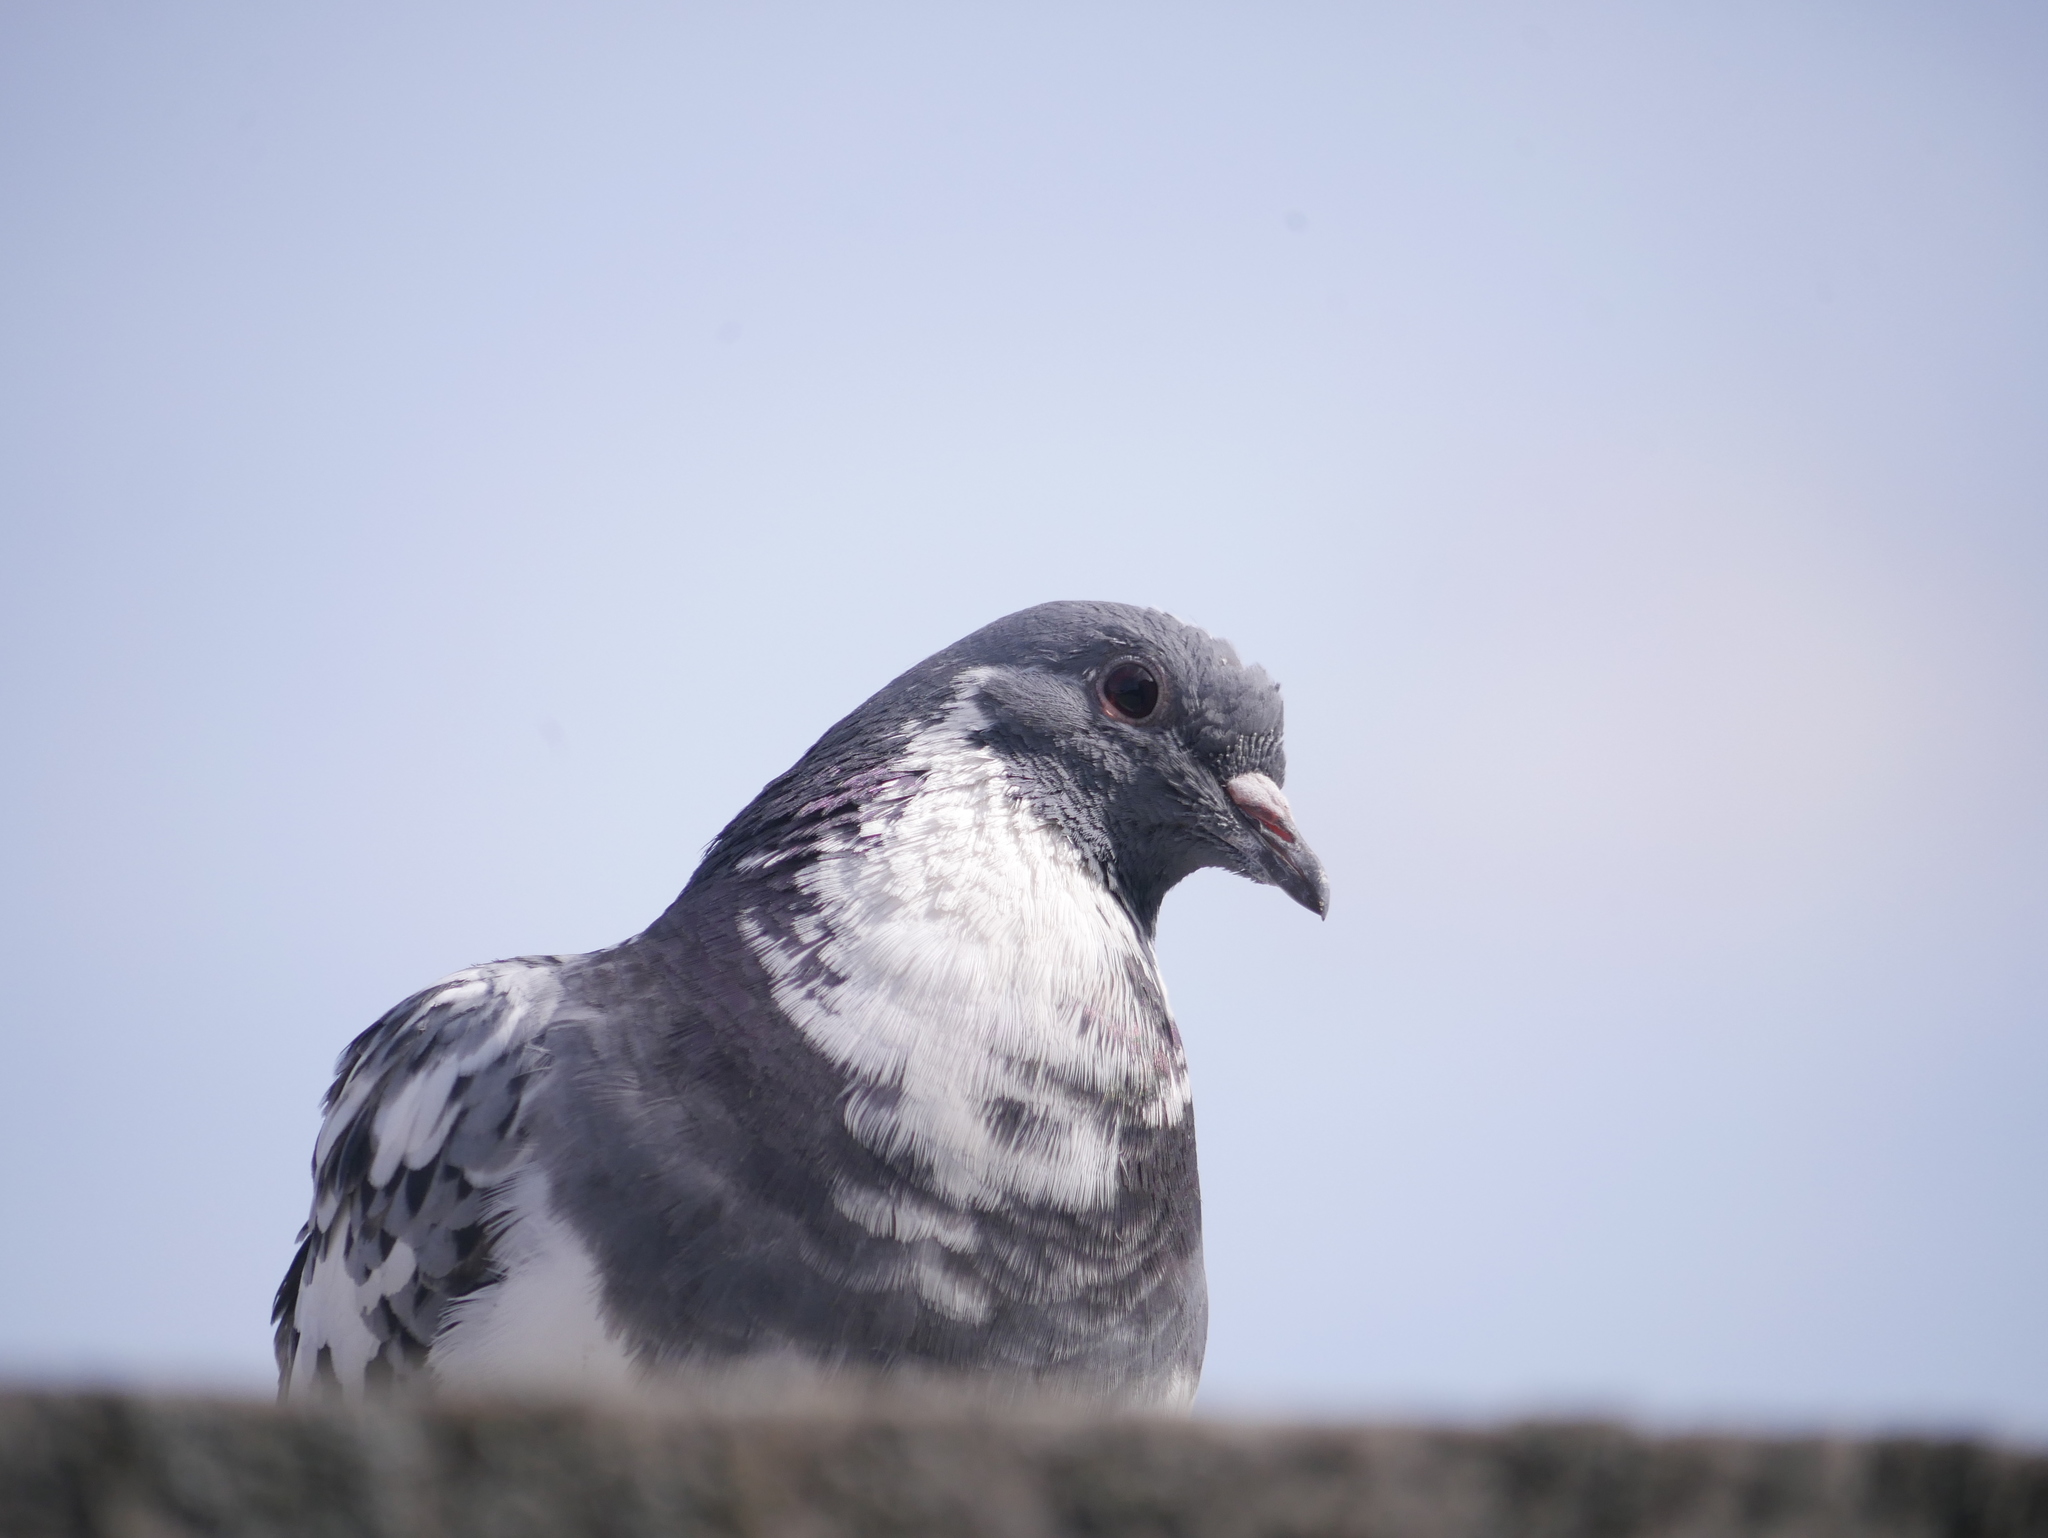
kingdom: Animalia
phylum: Chordata
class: Aves
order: Columbiformes
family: Columbidae
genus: Columba
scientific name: Columba livia
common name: Rock pigeon
